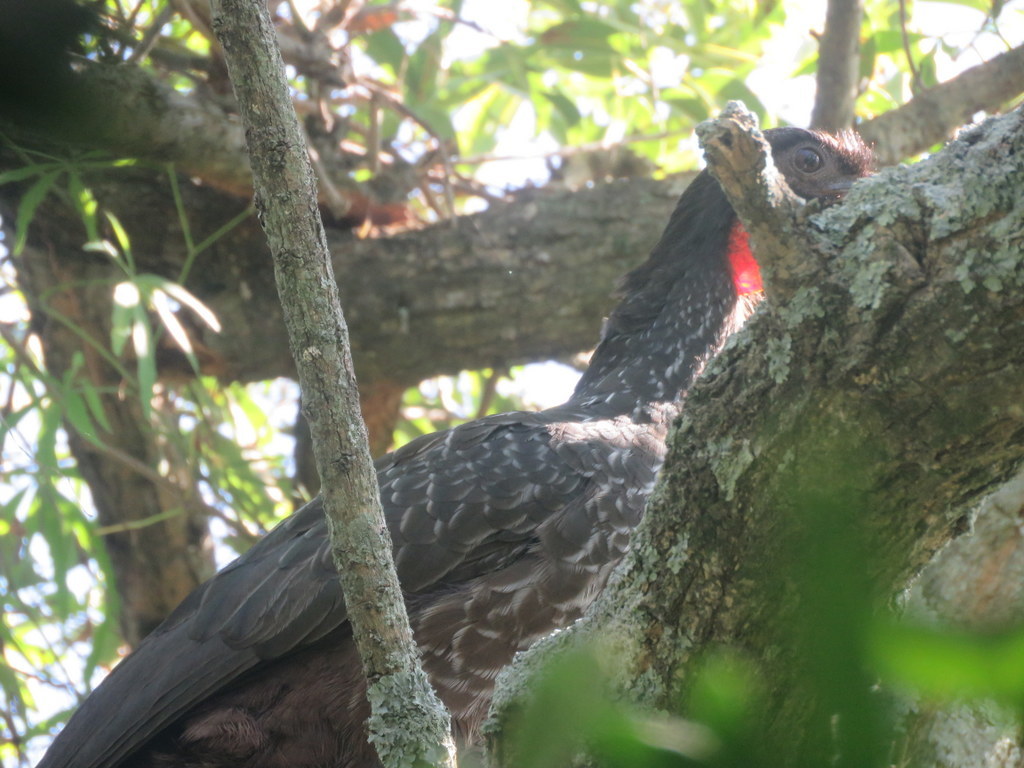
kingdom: Animalia
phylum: Chordata
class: Aves
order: Galliformes
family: Cracidae
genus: Penelope
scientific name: Penelope obscura
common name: Dusky-legged guan
